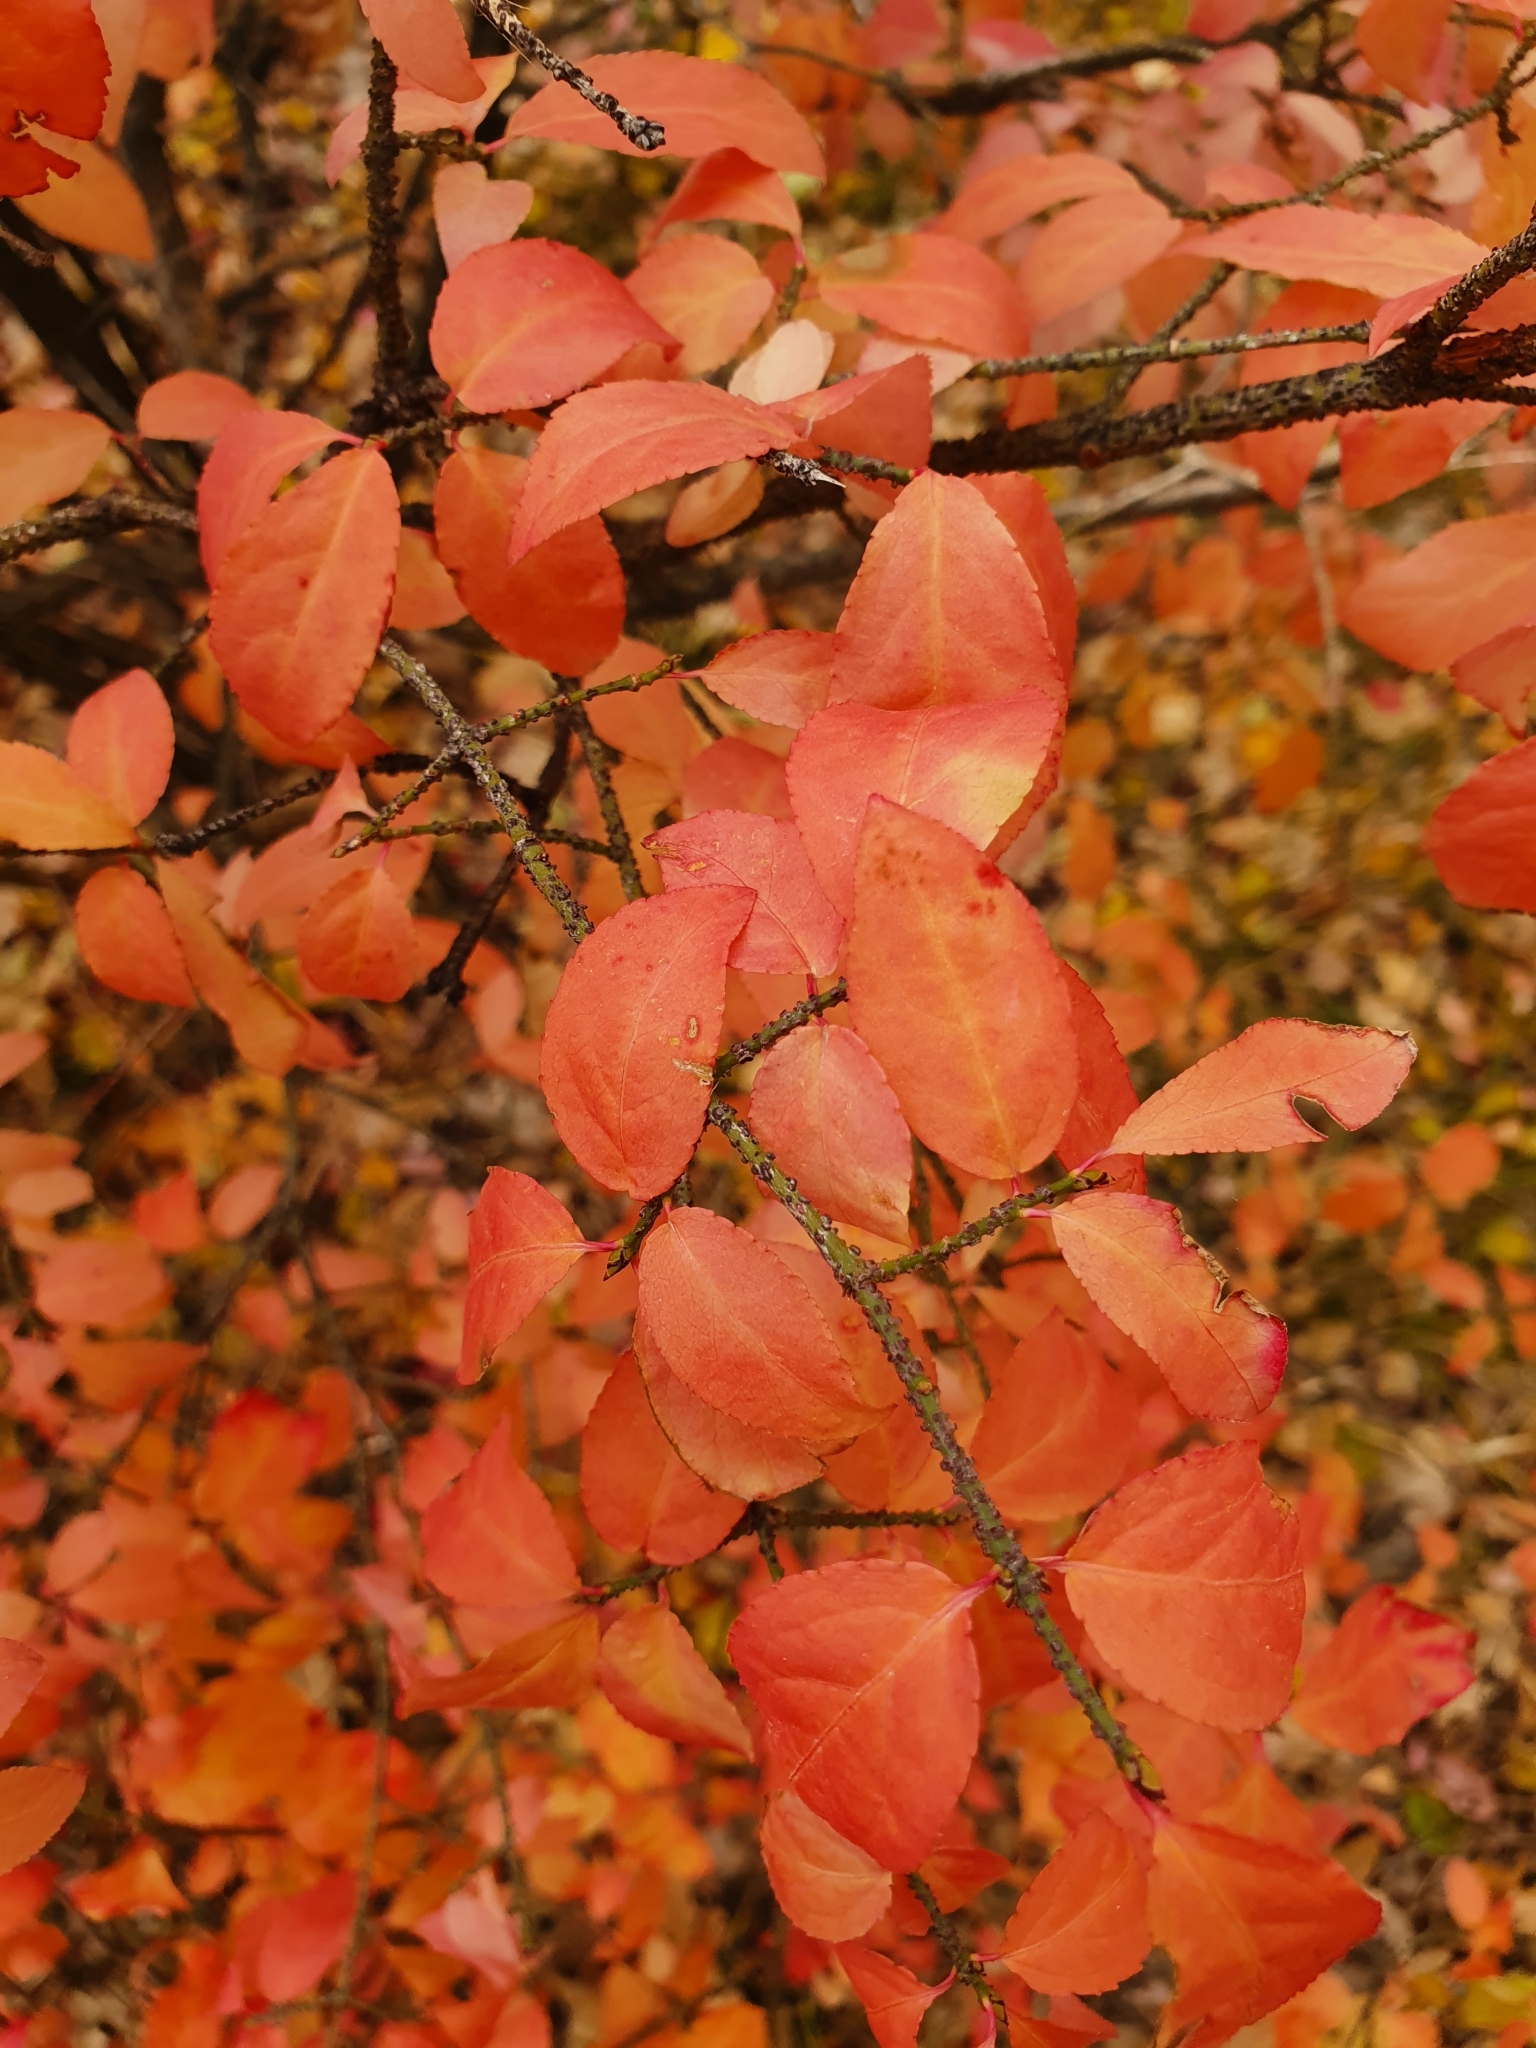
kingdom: Plantae
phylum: Tracheophyta
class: Magnoliopsida
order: Celastrales
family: Celastraceae
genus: Euonymus
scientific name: Euonymus verrucosus
